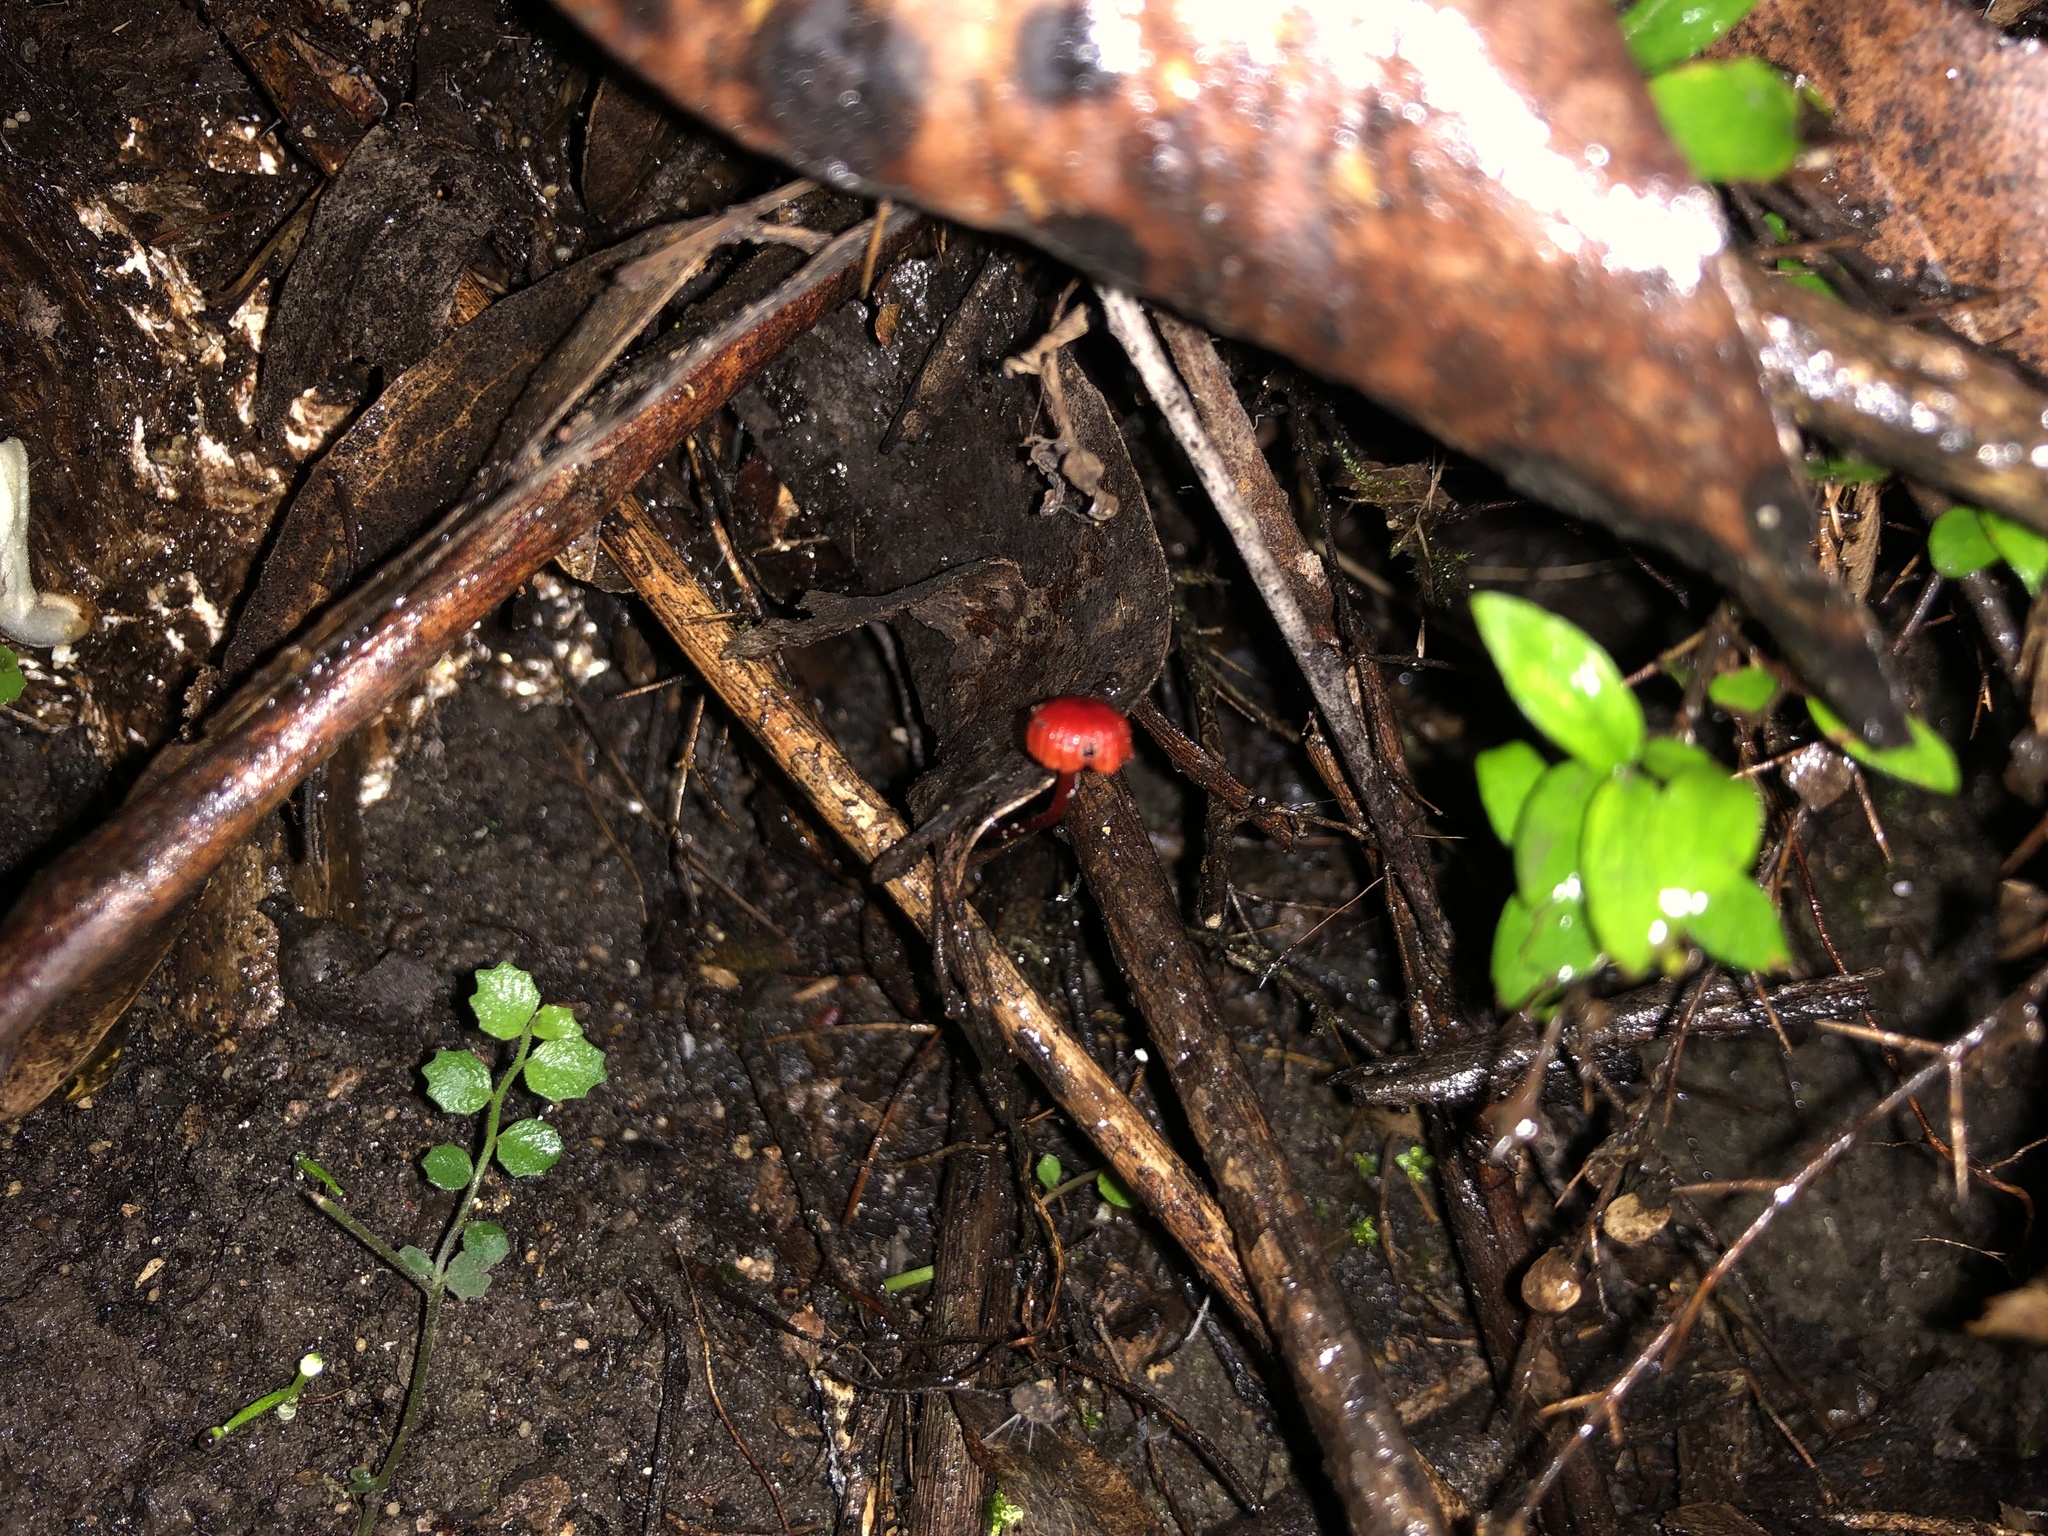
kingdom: Fungi
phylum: Basidiomycota
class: Agaricomycetes
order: Agaricales
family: Mycenaceae
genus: Cruentomycena
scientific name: Cruentomycena viscidocruenta
